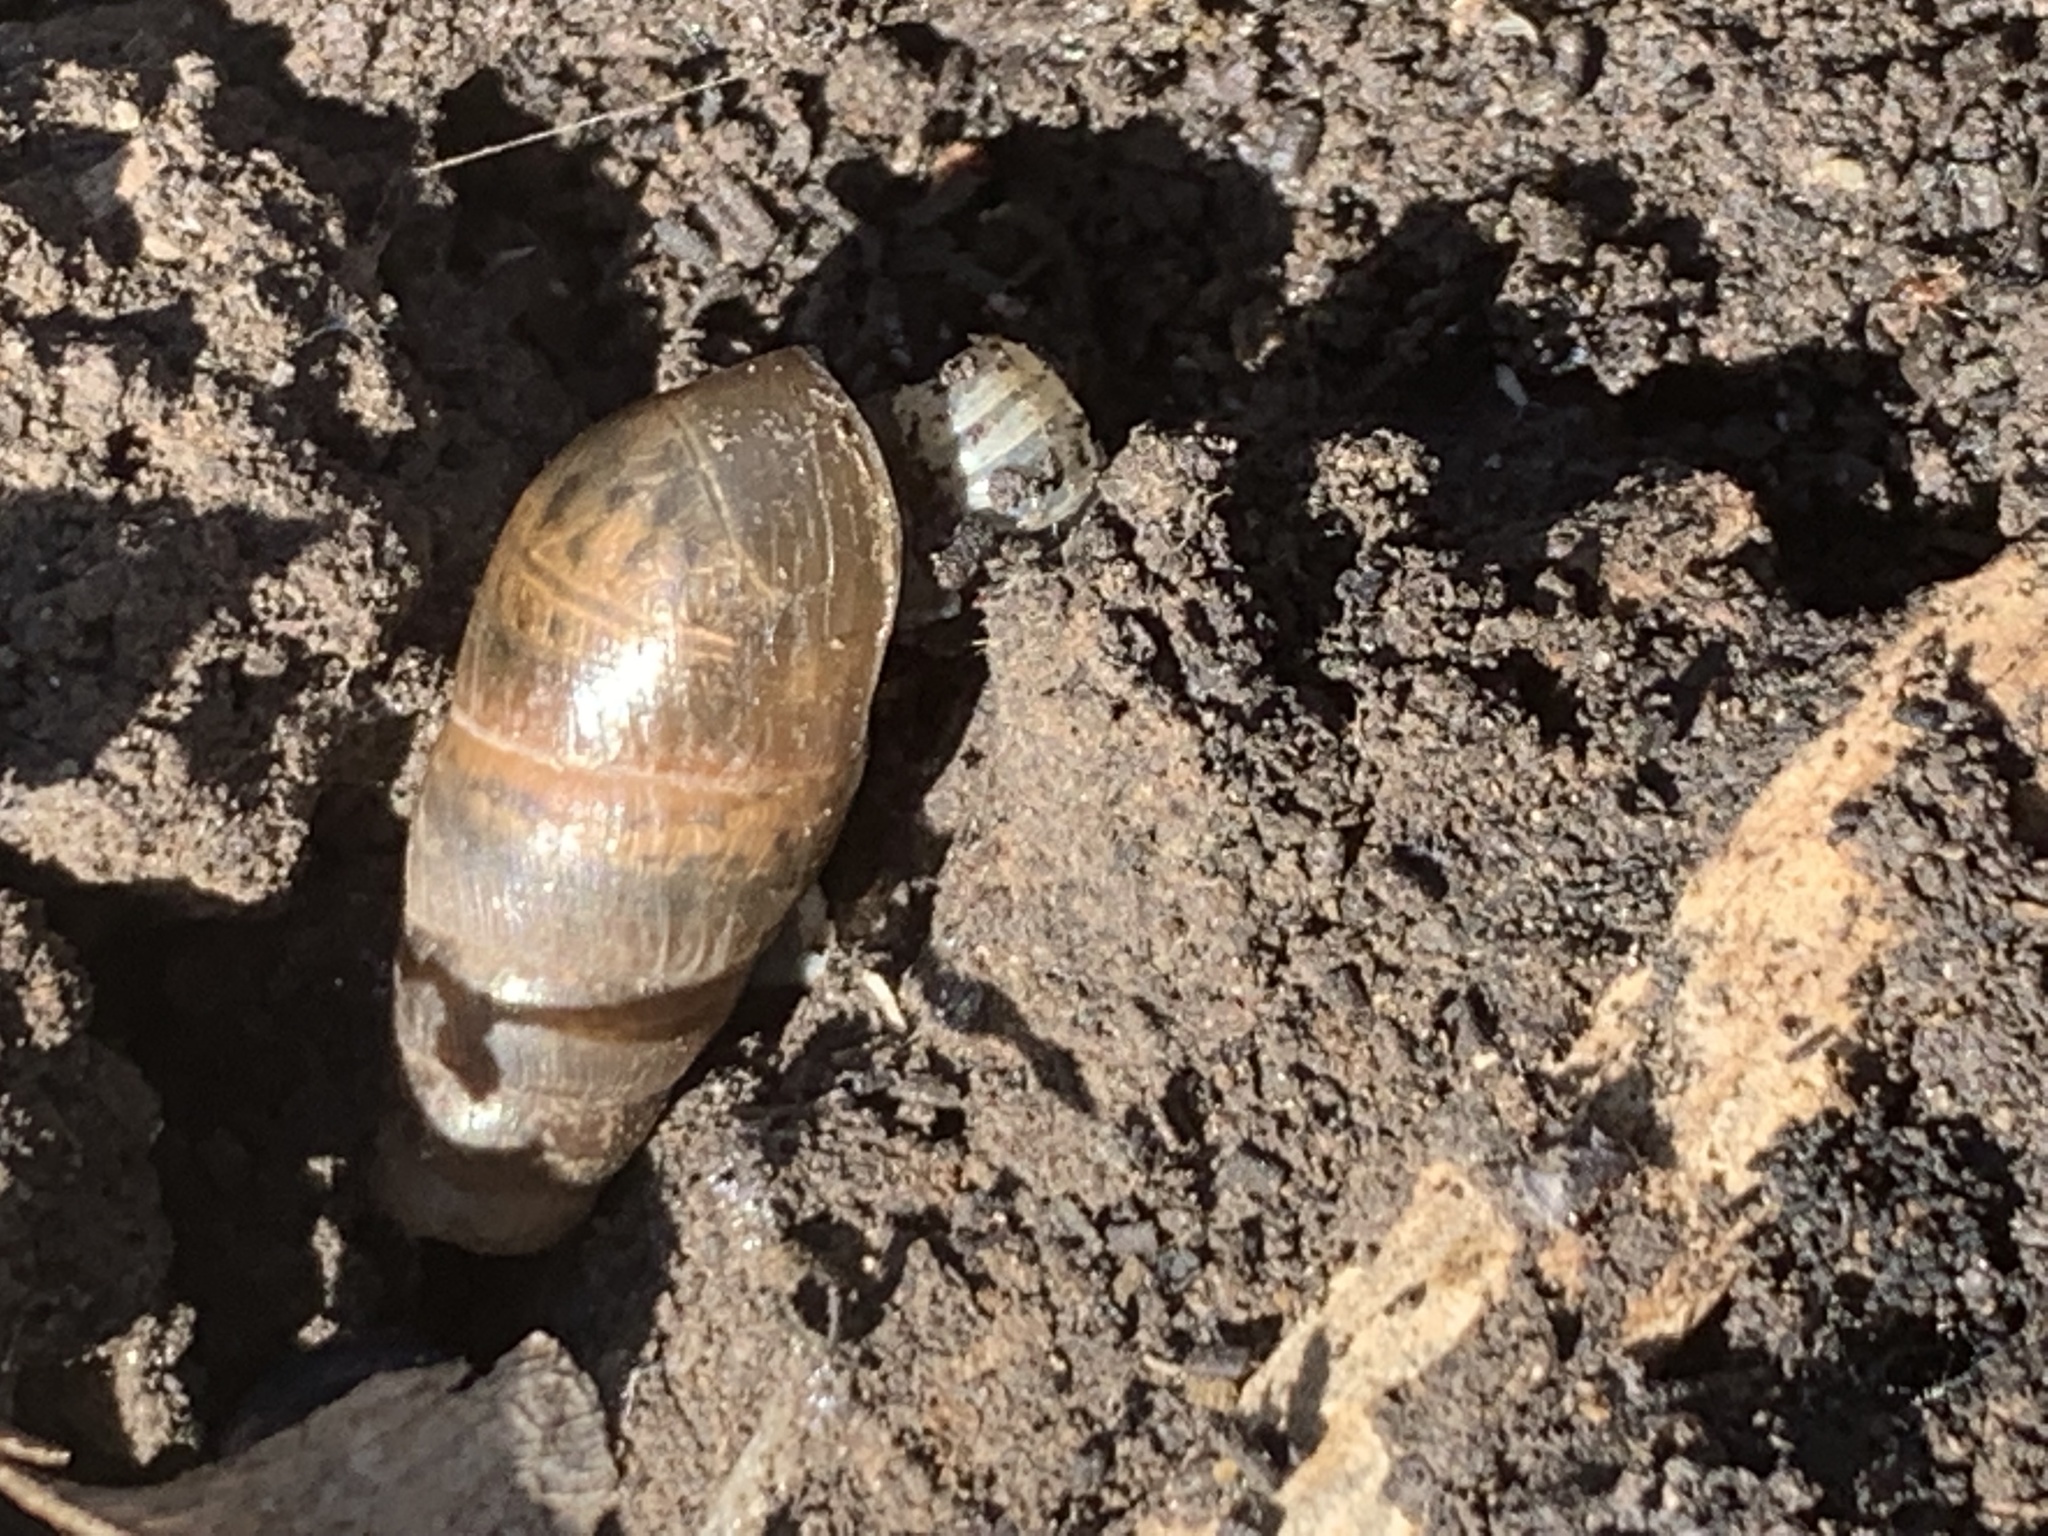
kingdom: Animalia
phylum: Mollusca
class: Gastropoda
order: Stylommatophora
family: Achatinidae
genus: Rumina
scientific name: Rumina decollata
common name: Decollate snail
